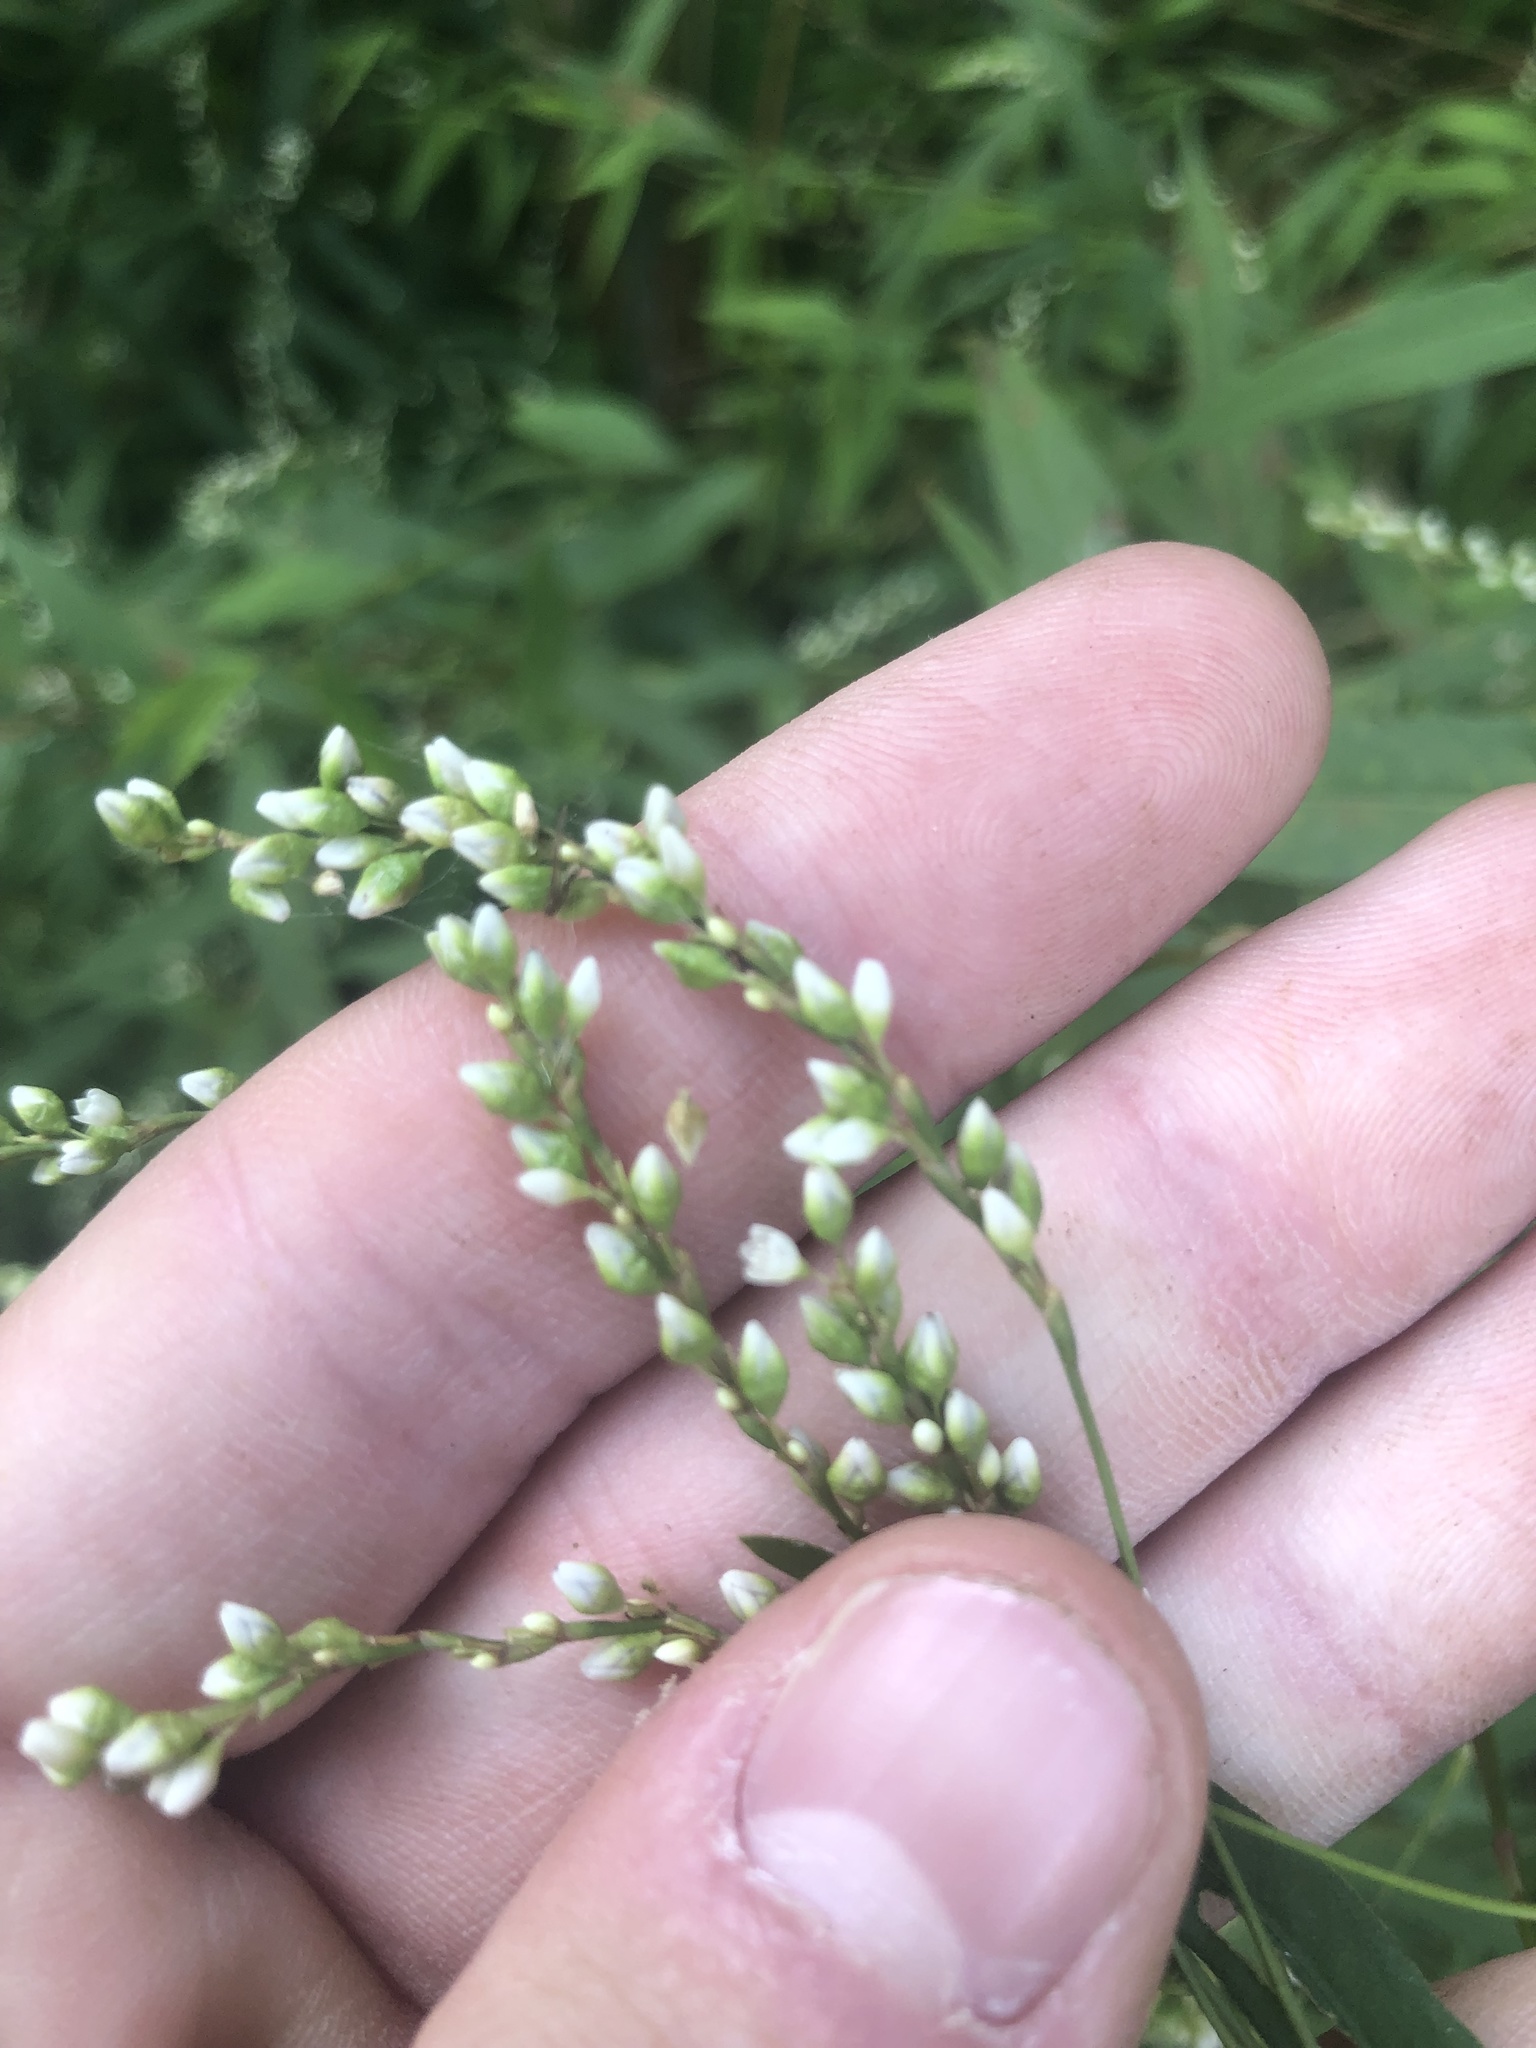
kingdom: Plantae
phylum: Tracheophyta
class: Magnoliopsida
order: Caryophyllales
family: Polygonaceae
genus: Persicaria
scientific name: Persicaria punctata
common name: Dotted smartweed
